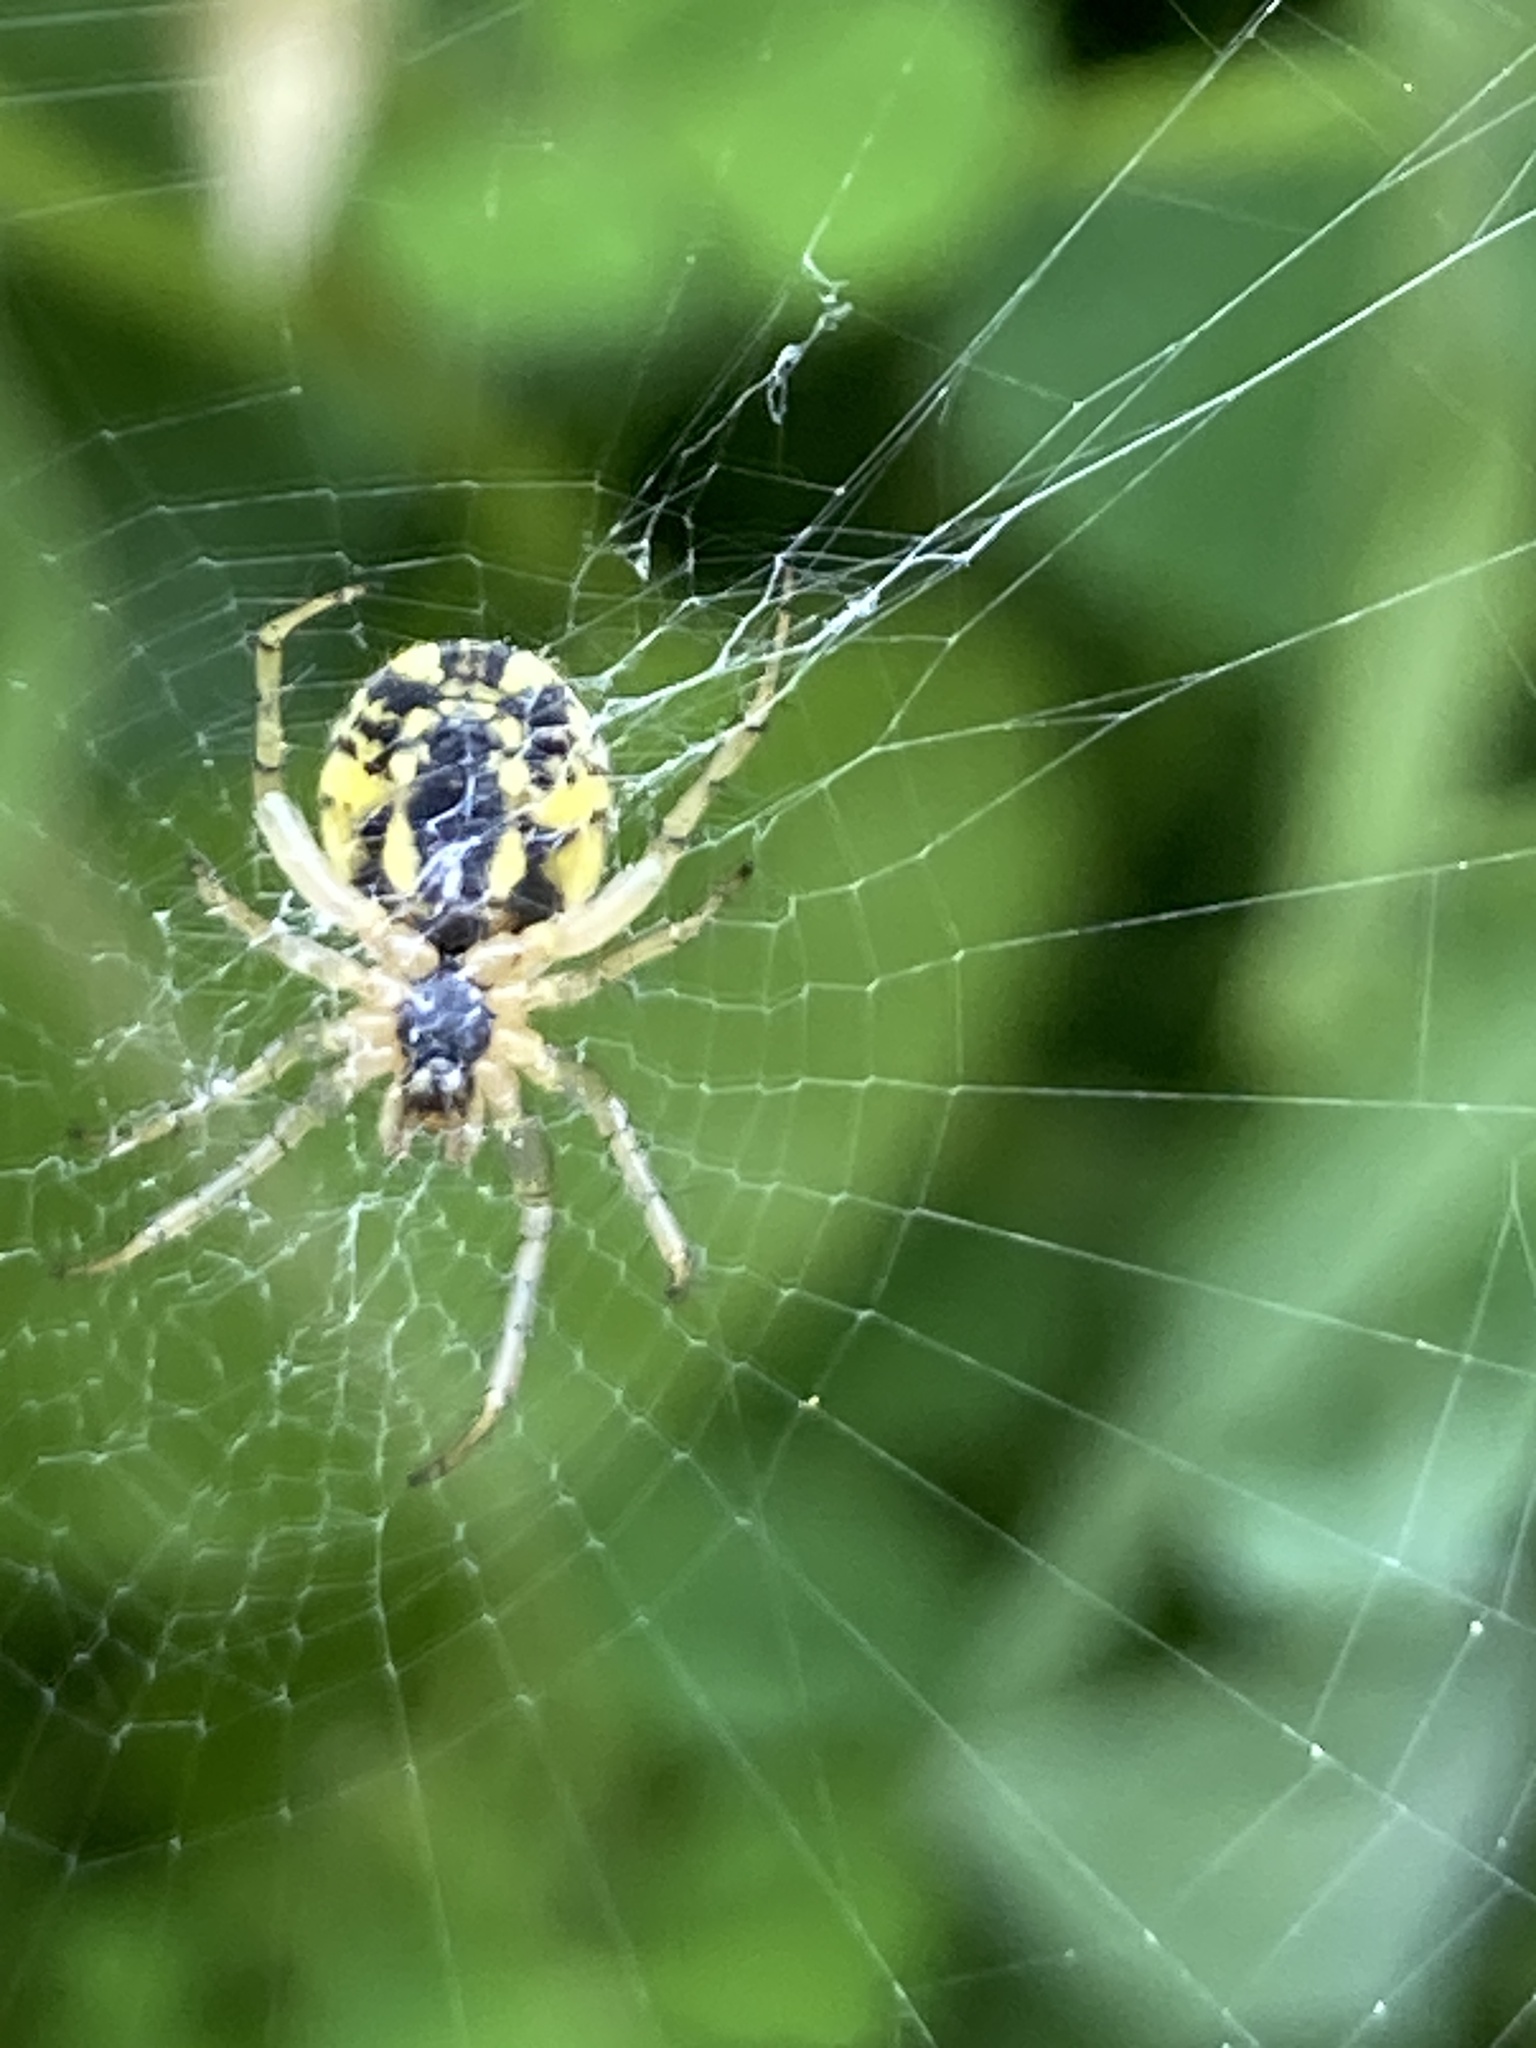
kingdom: Animalia
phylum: Arthropoda
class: Arachnida
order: Araneae
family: Araneidae
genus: Mangora
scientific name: Mangora acalypha
